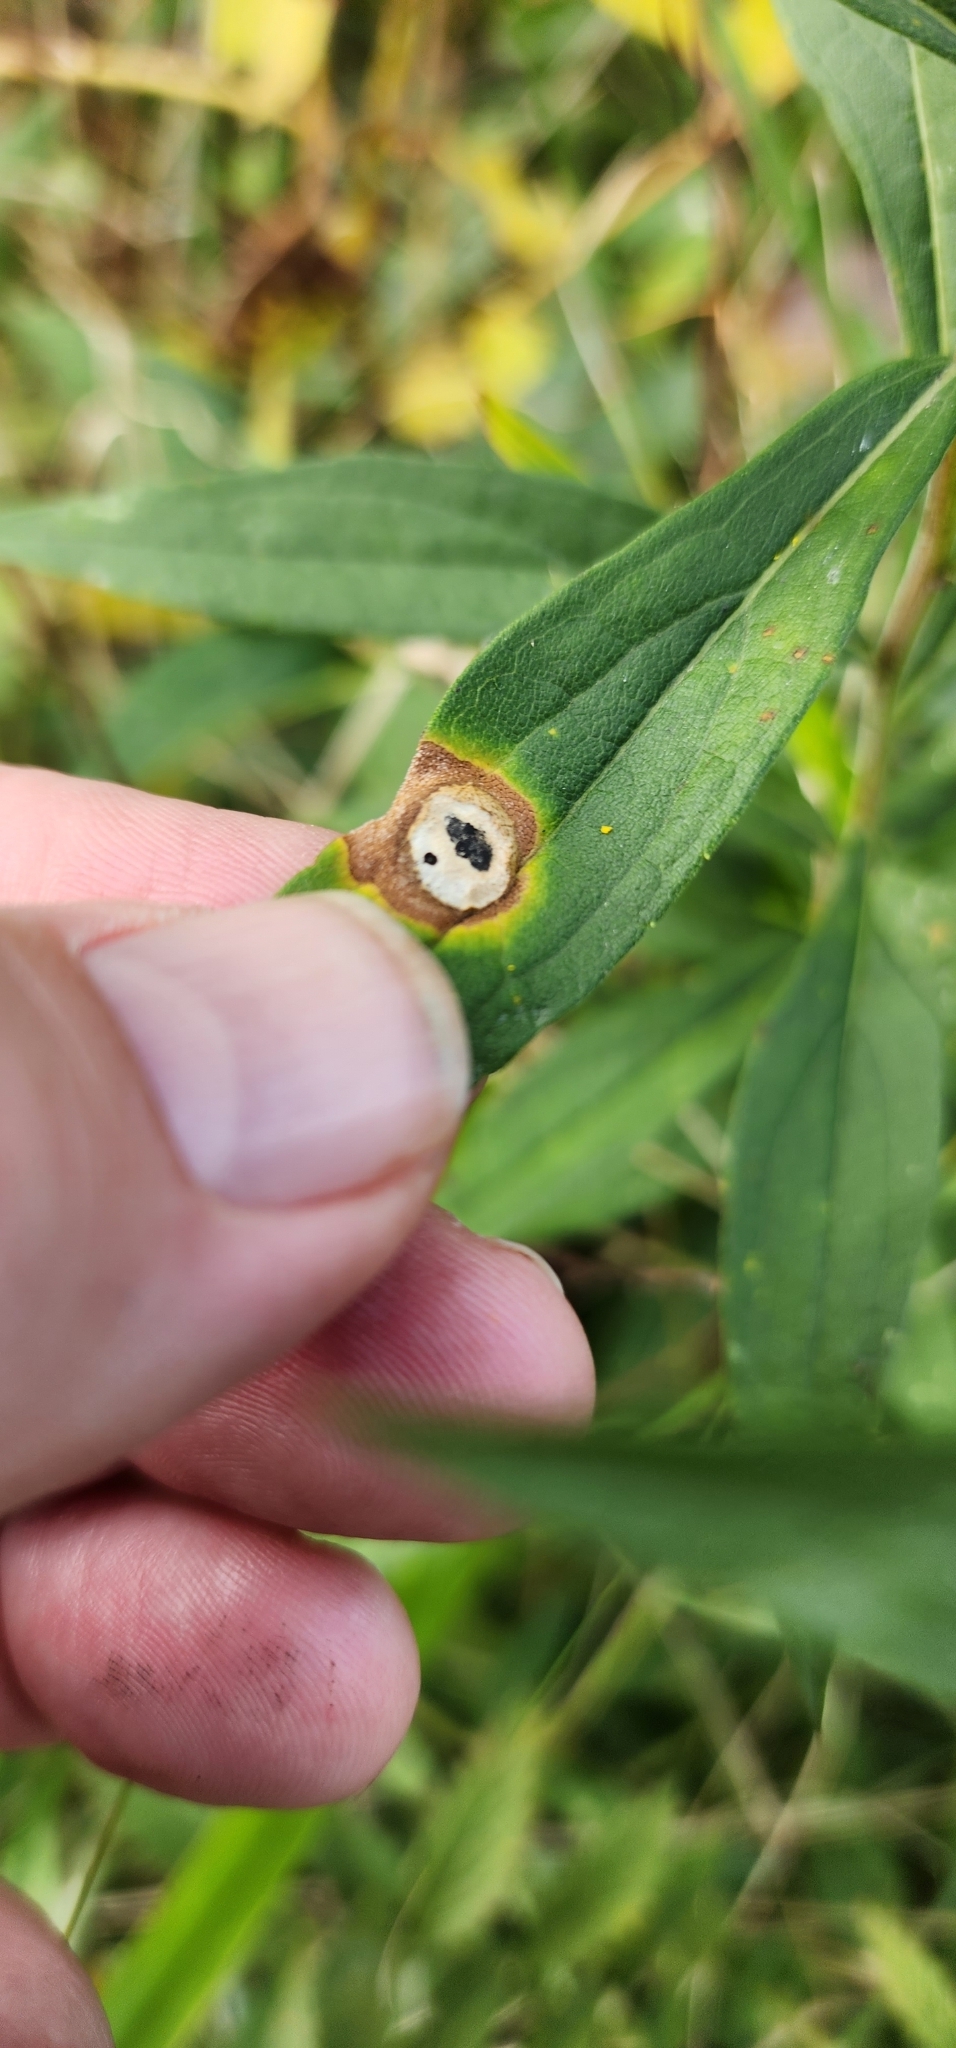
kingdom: Animalia
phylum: Arthropoda
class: Insecta
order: Diptera
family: Cecidomyiidae
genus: Asteromyia
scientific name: Asteromyia carbonifera
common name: Carbonifera goldenrod gall midge
